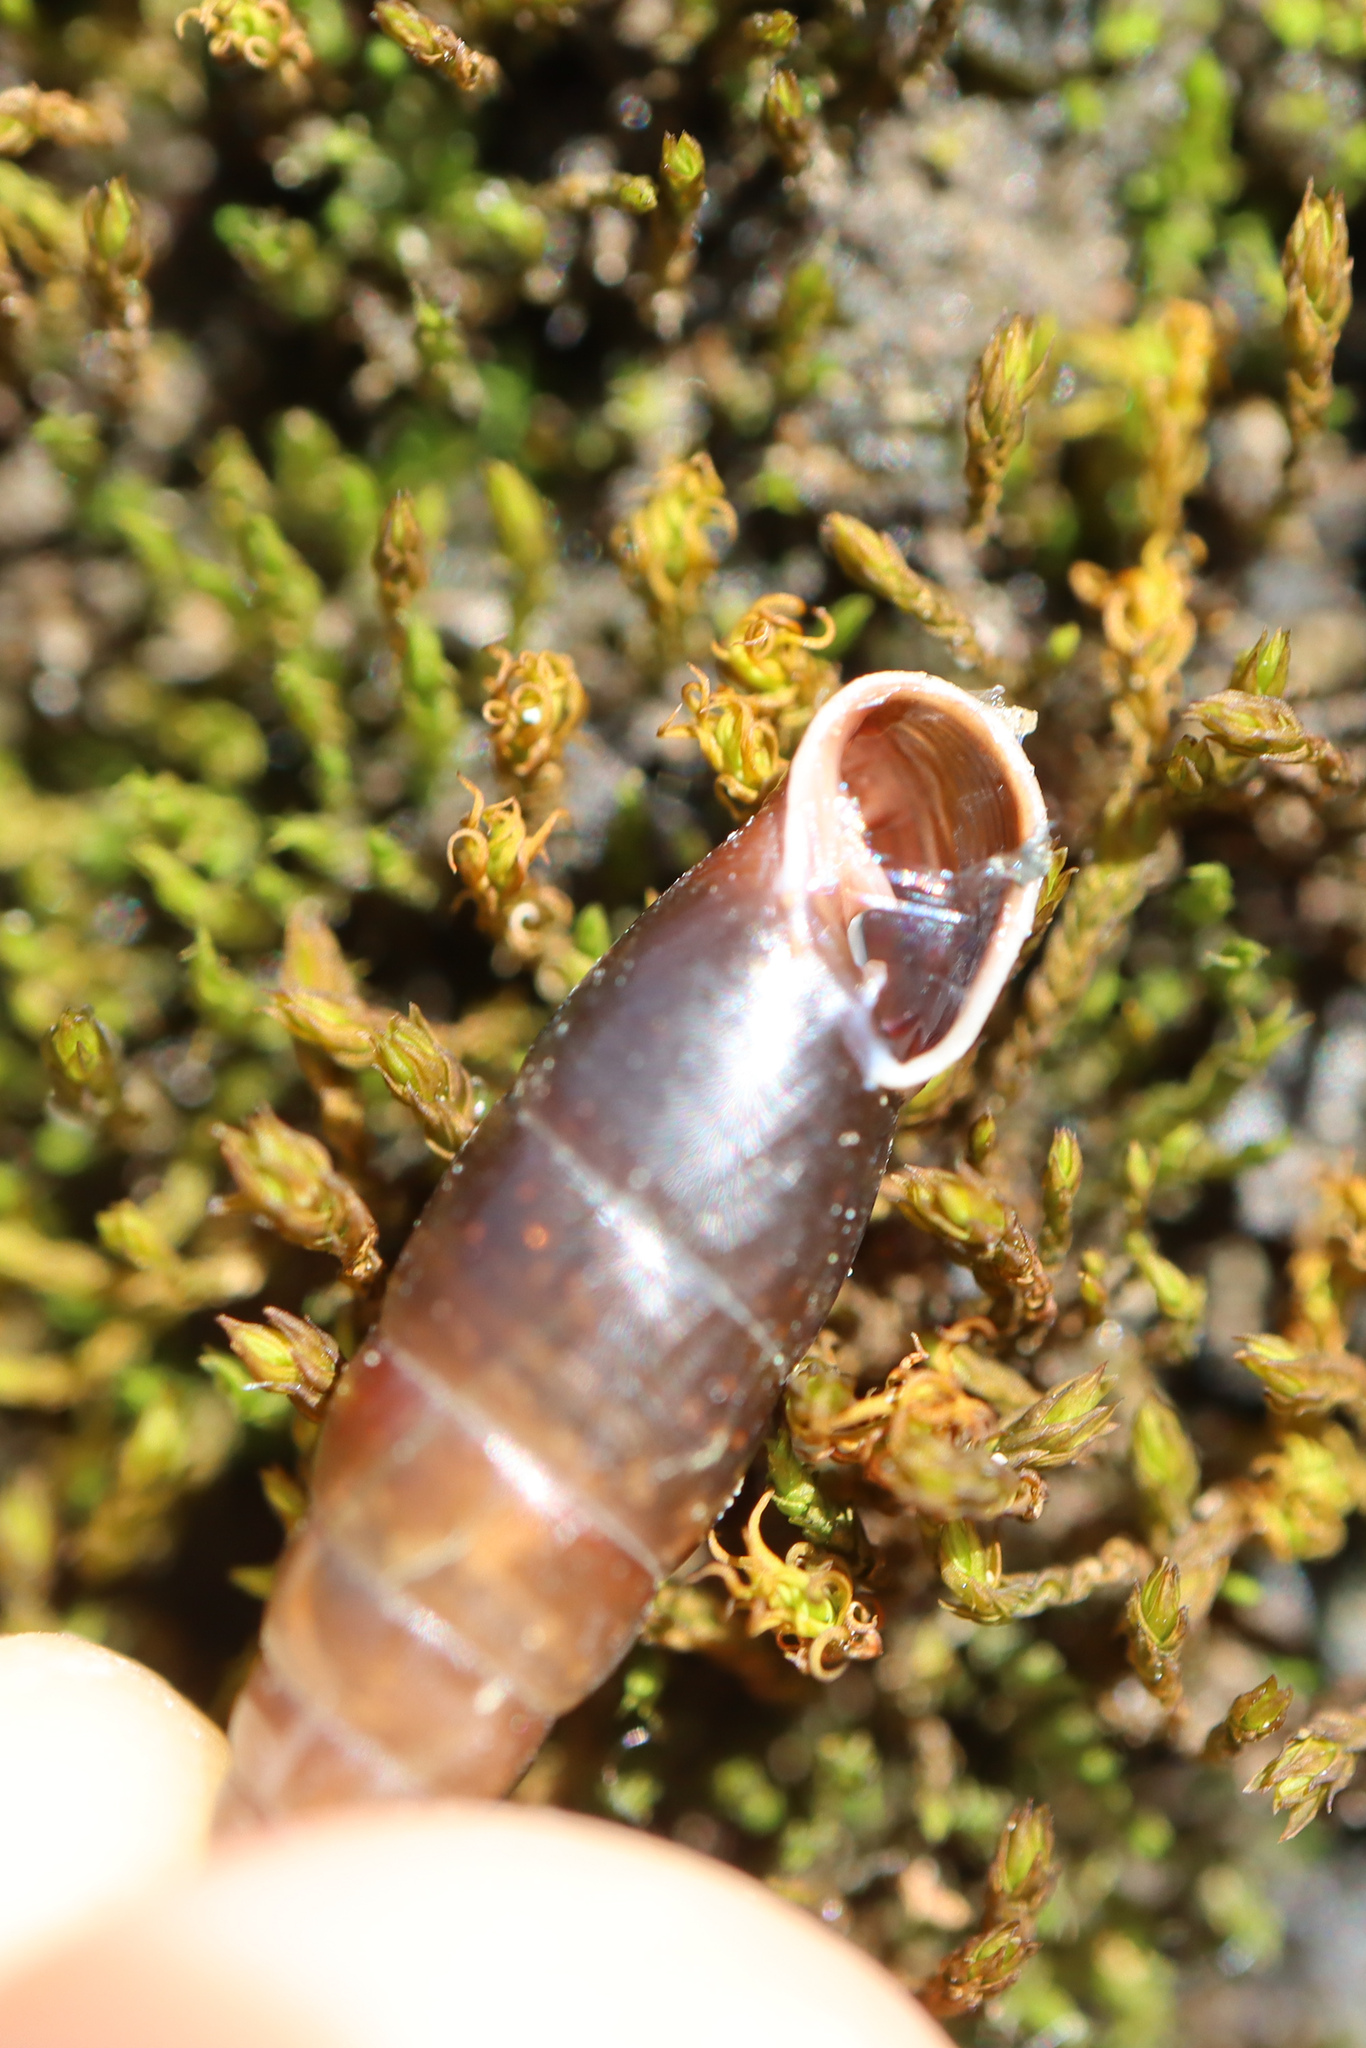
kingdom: Animalia
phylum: Mollusca
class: Gastropoda
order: Stylommatophora
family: Clausiliidae
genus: Cochlodina
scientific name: Cochlodina laminata
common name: Plaited door snail
